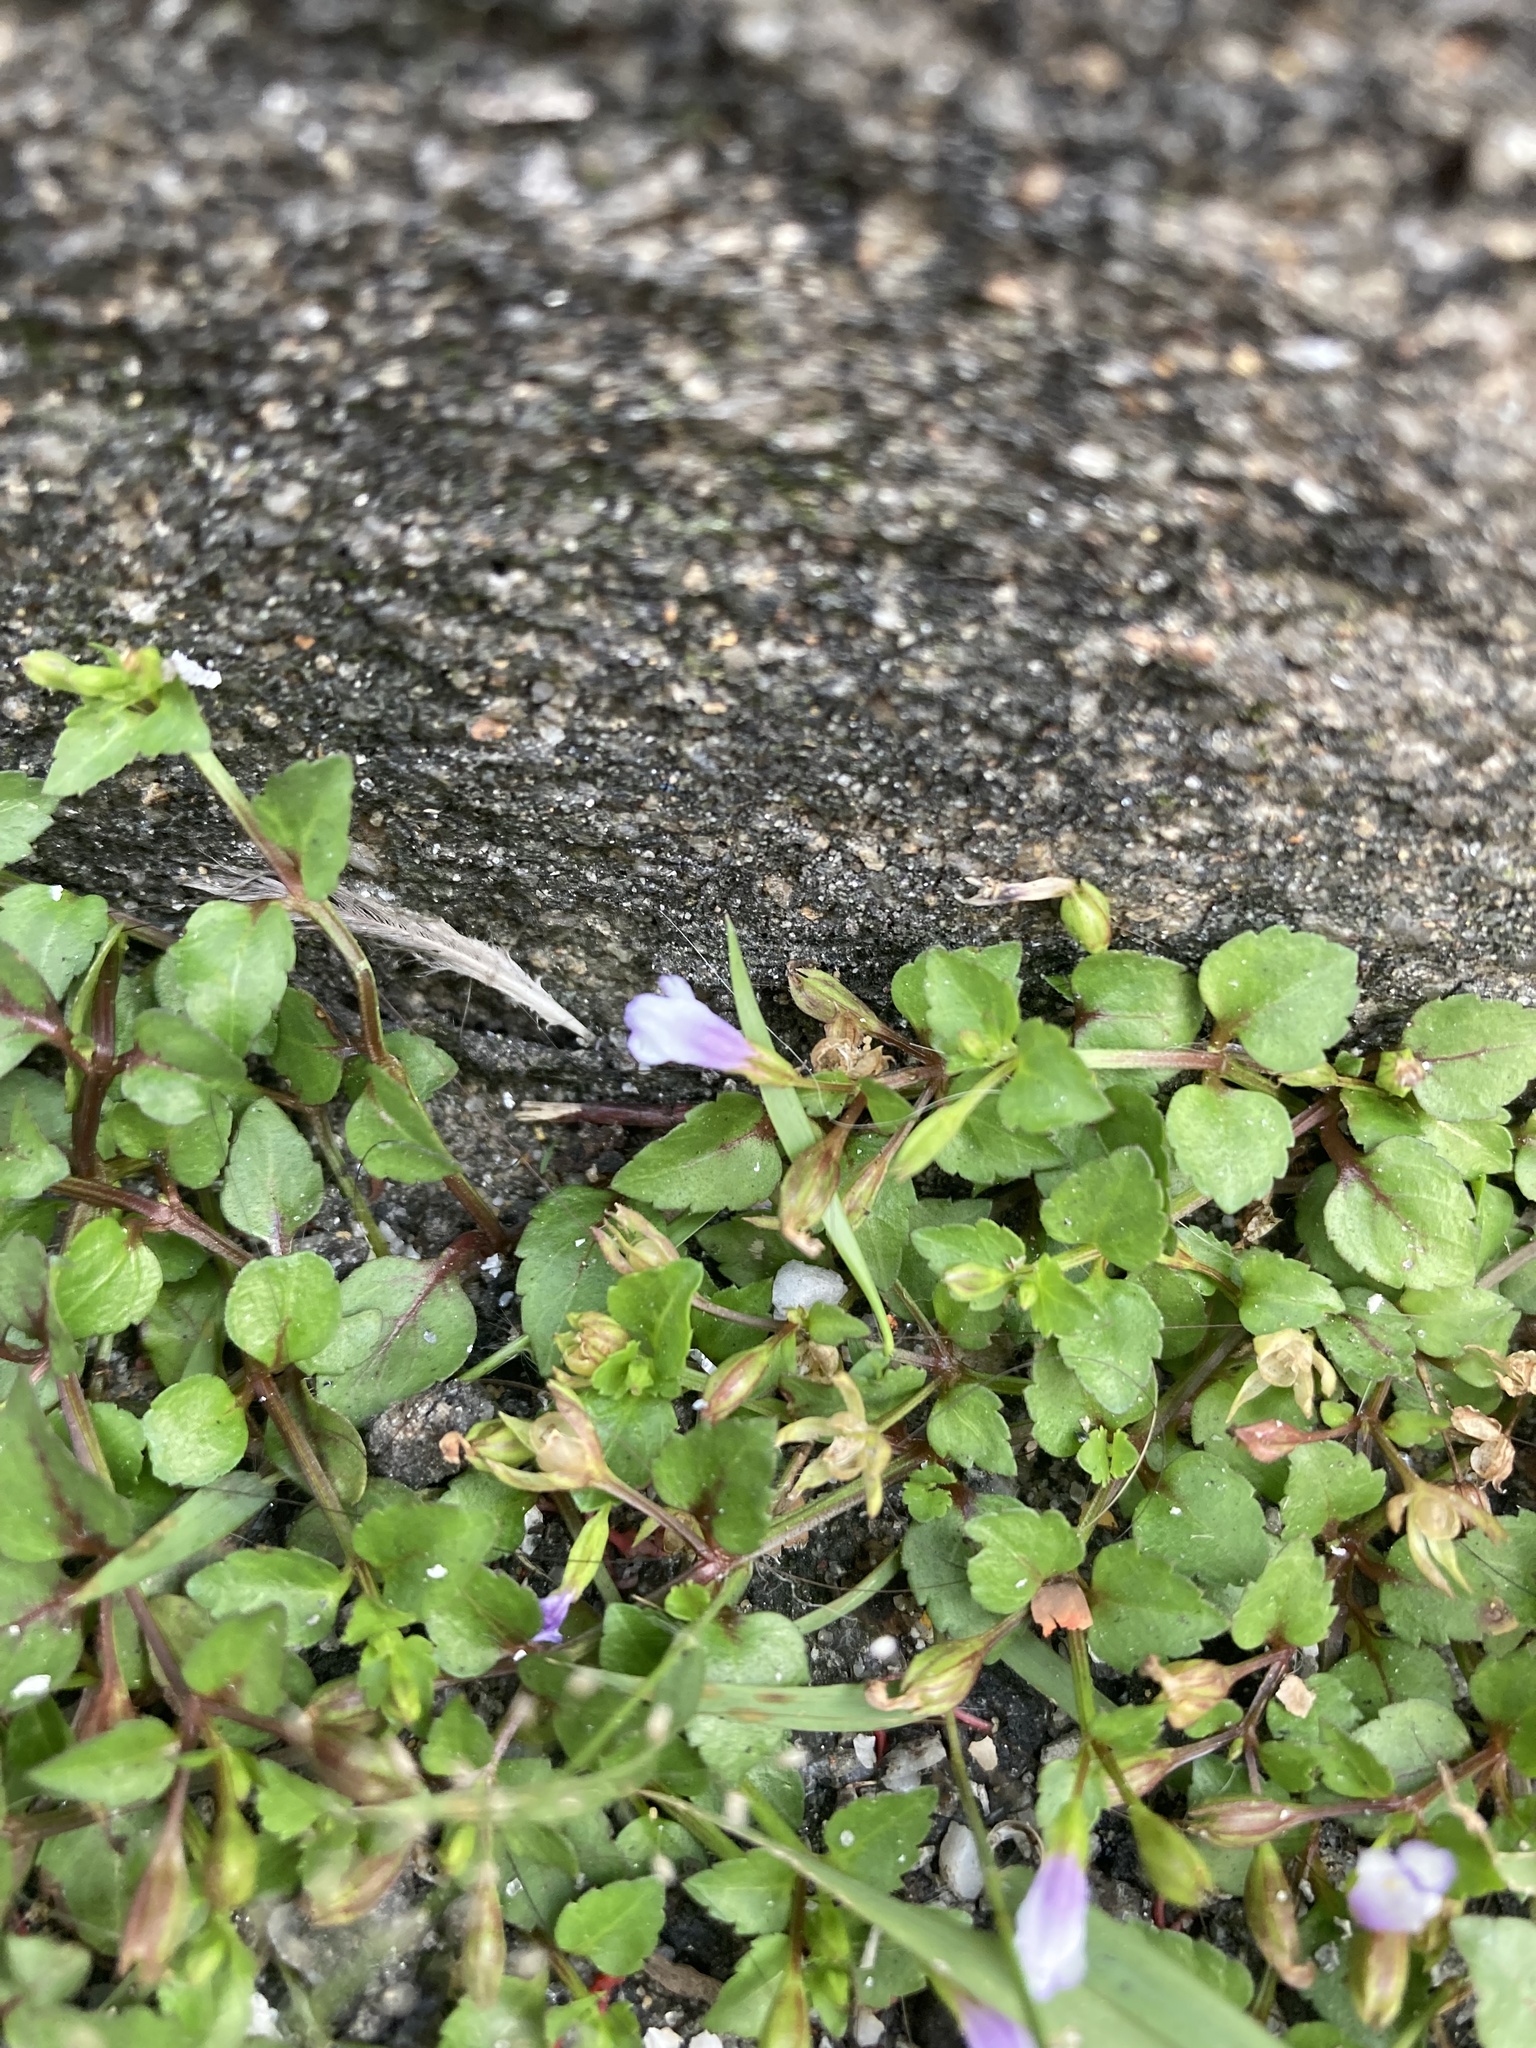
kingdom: Plantae
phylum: Tracheophyta
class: Magnoliopsida
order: Lamiales
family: Linderniaceae
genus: Torenia
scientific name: Torenia crustacea
